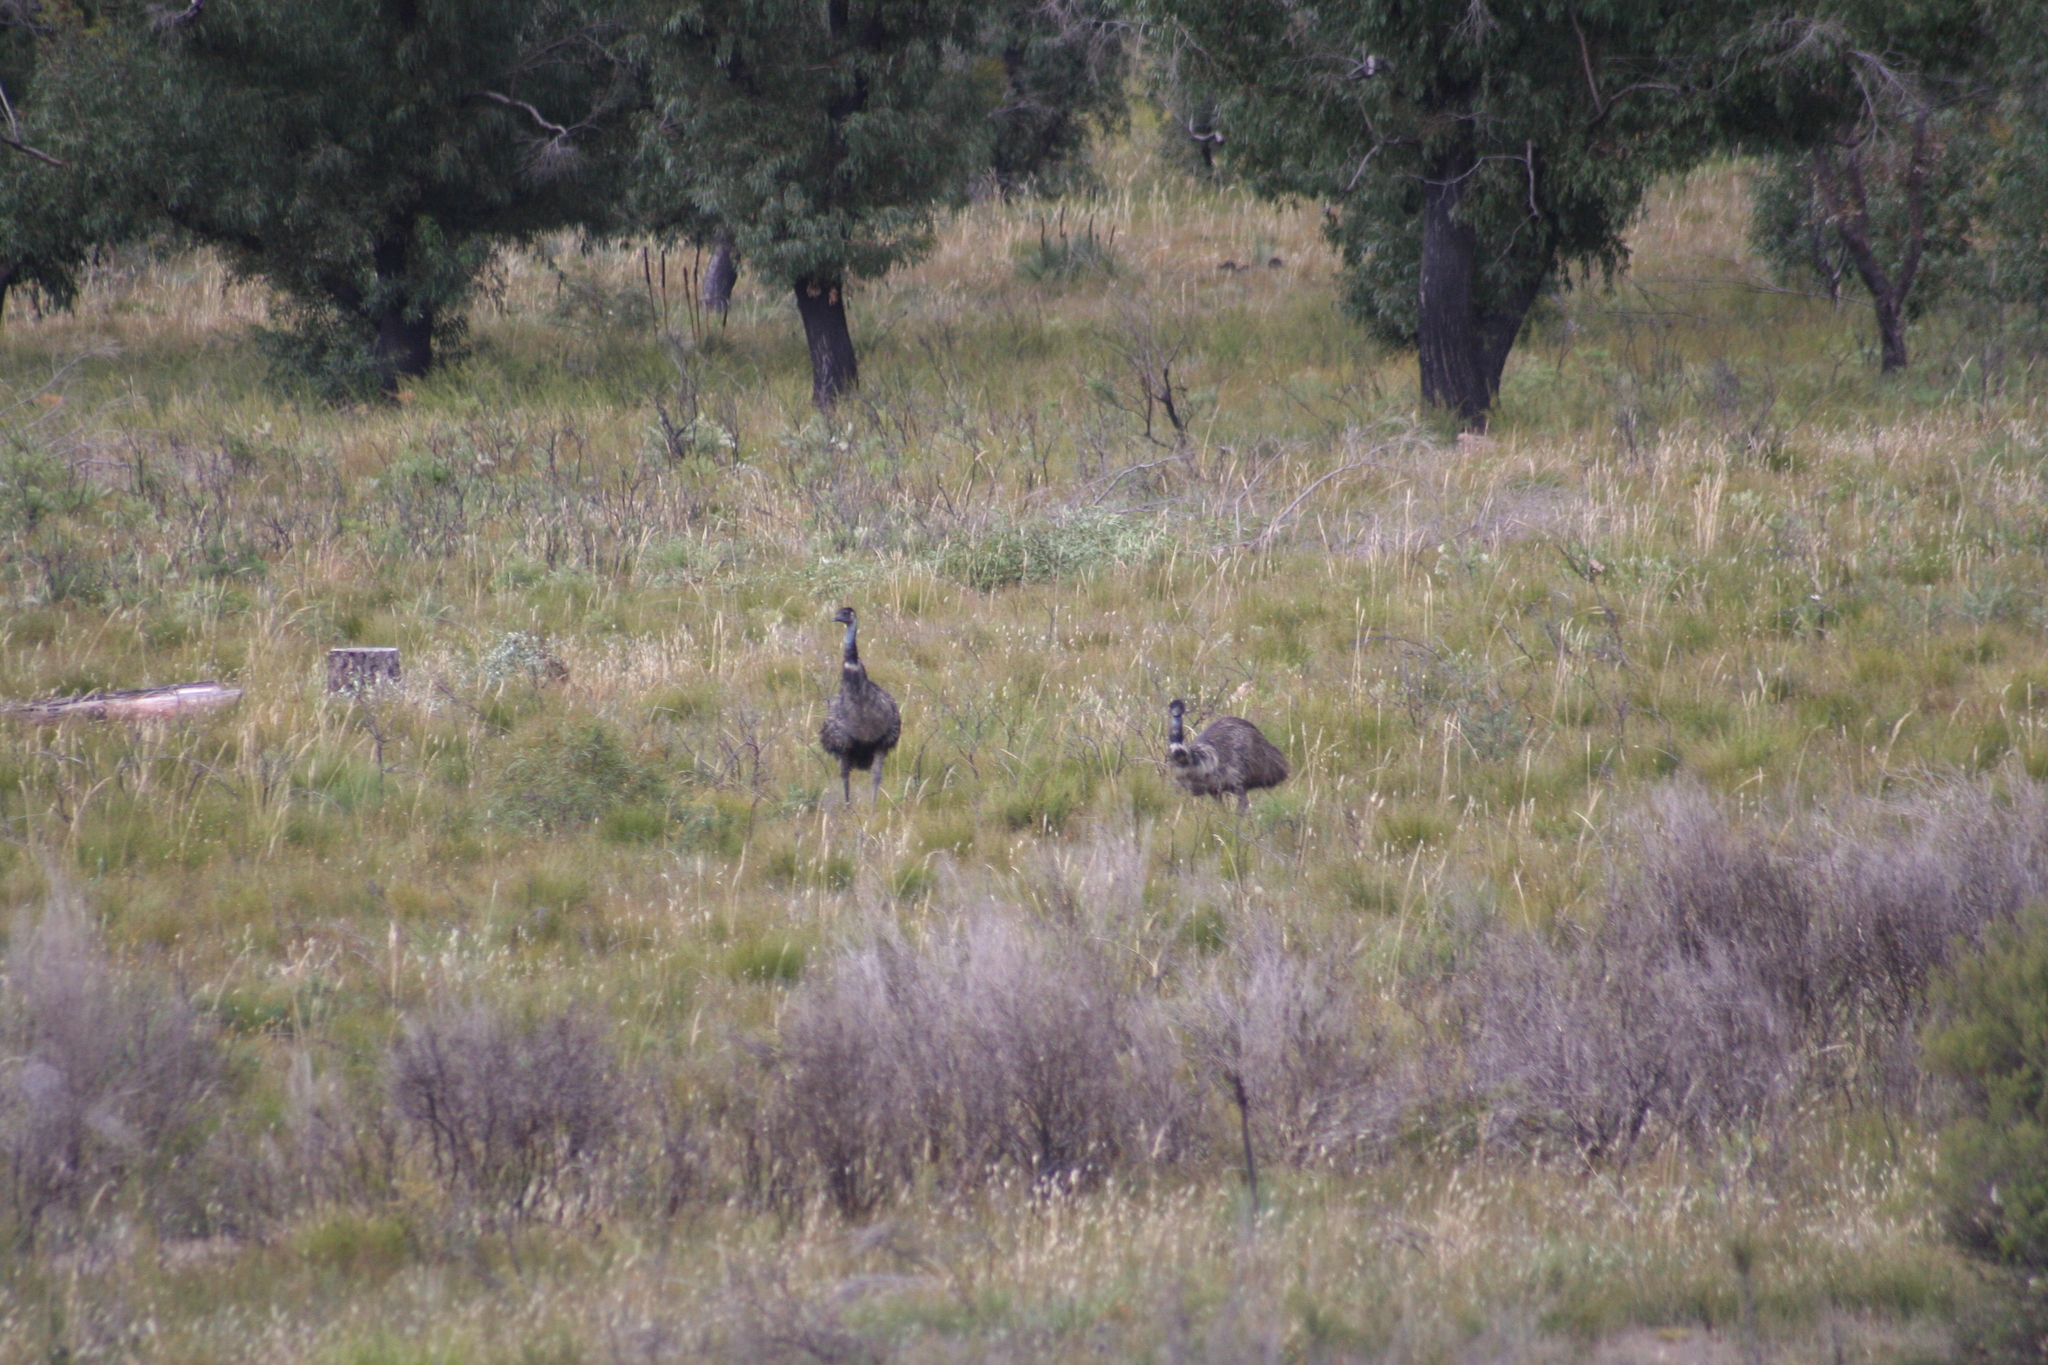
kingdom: Animalia
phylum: Chordata
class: Aves
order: Casuariiformes
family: Dromaiidae
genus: Dromaius
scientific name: Dromaius novaehollandiae
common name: Emu
